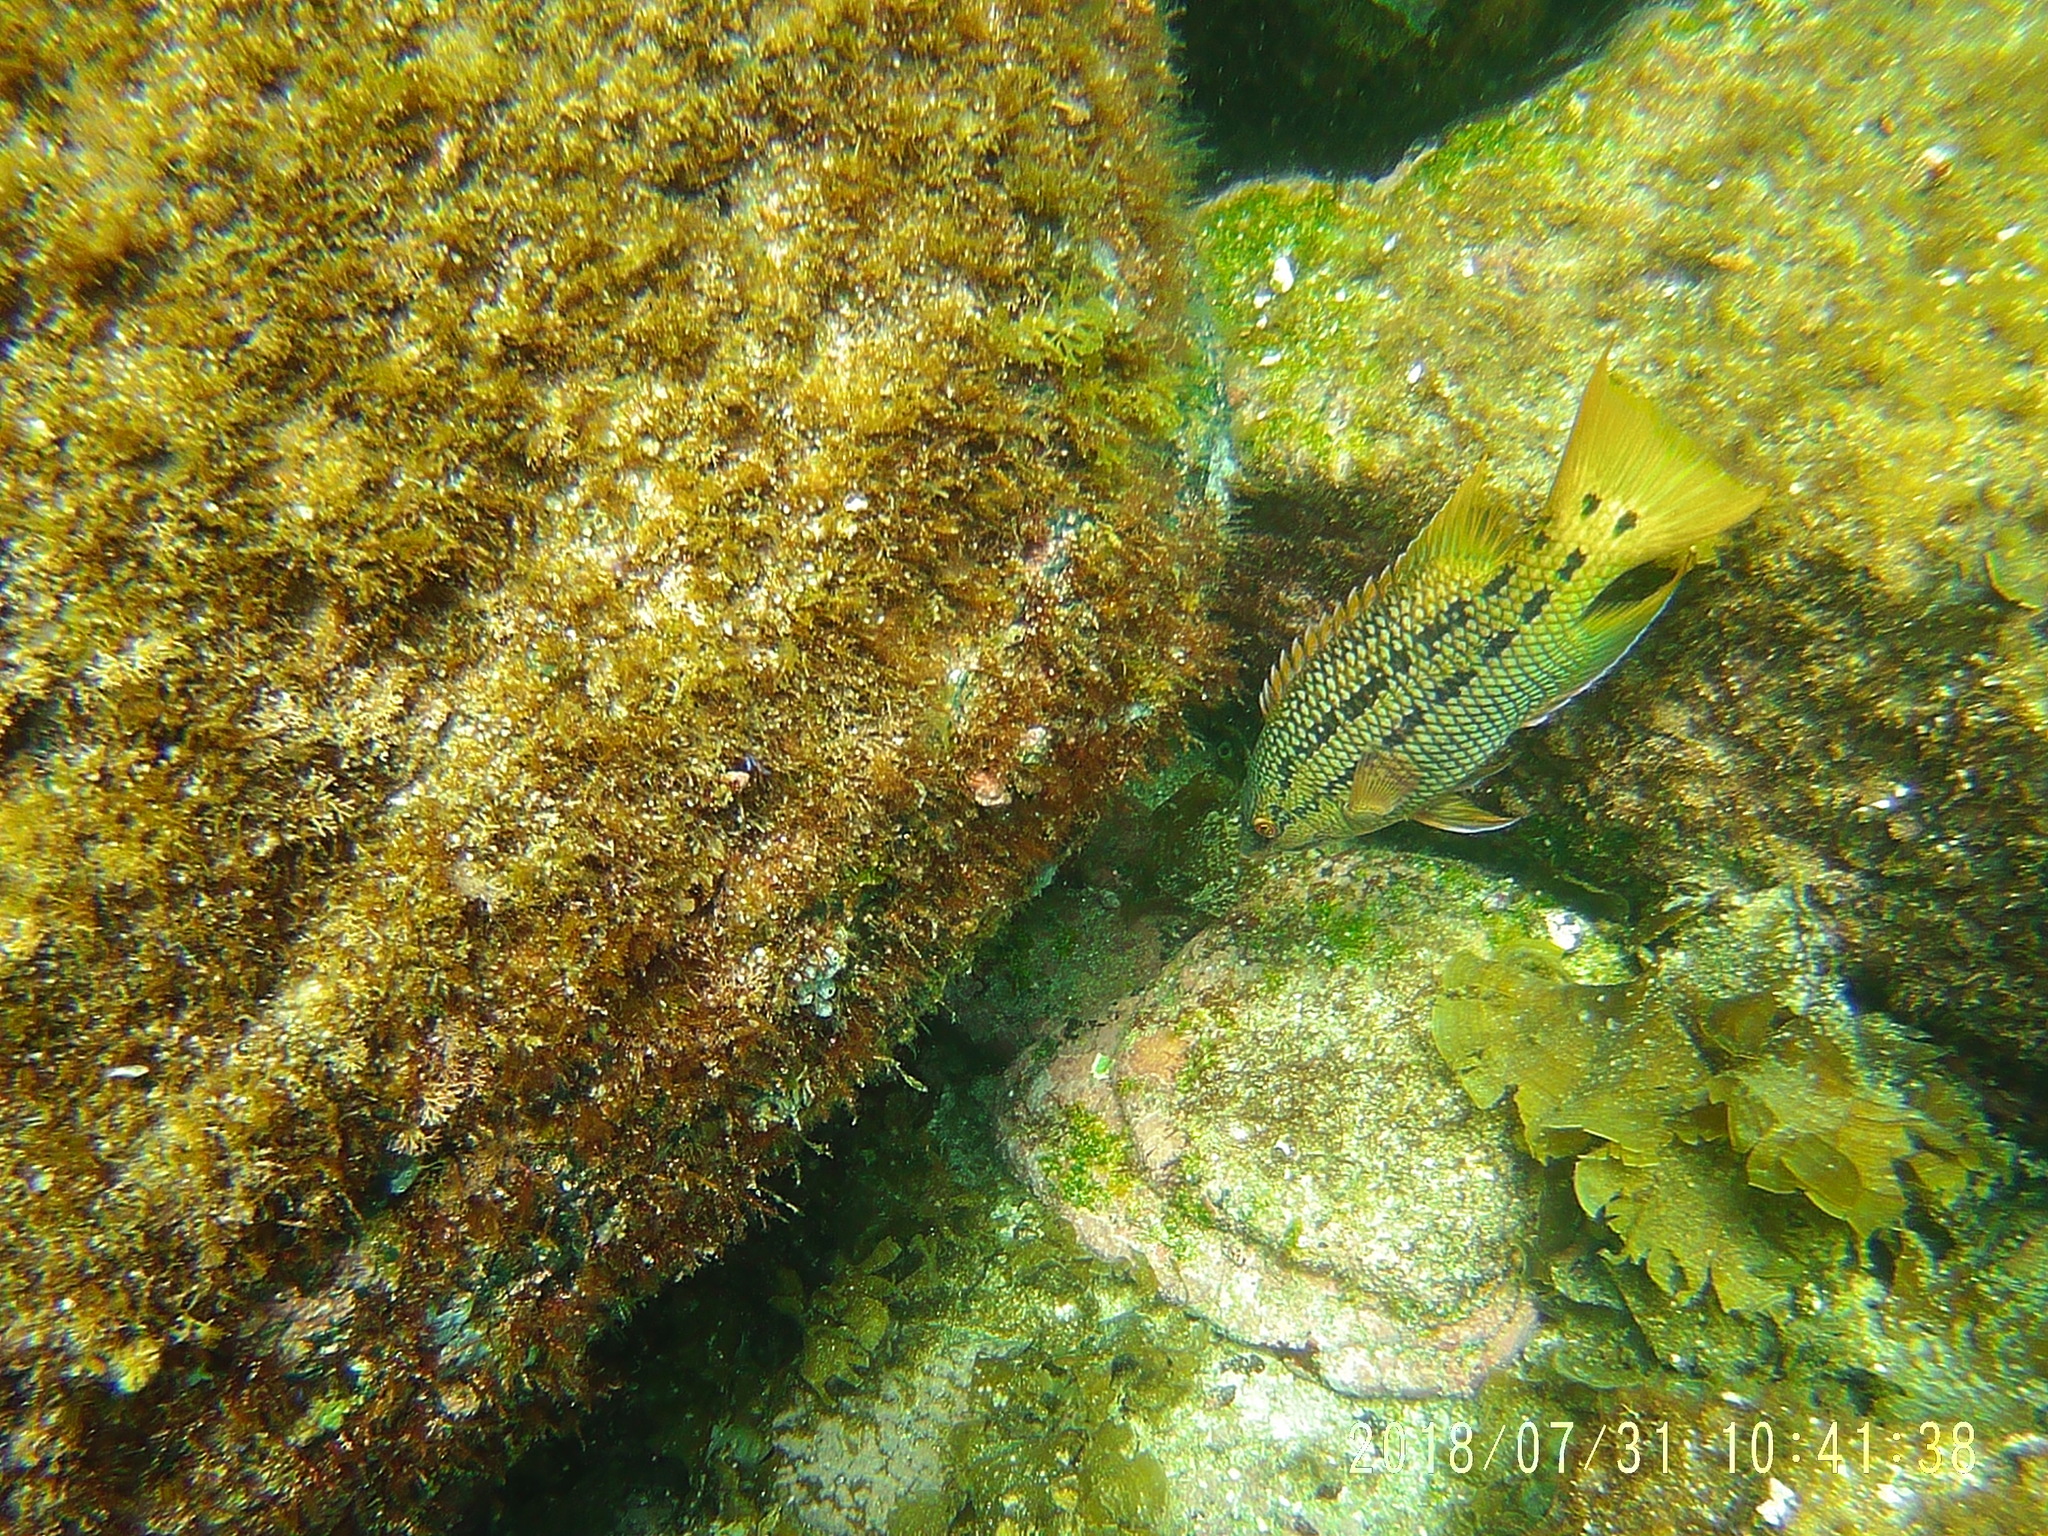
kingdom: Animalia
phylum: Chordata
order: Perciformes
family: Labridae
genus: Bodianus
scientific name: Bodianus diplotaenia
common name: Mexican hogfish
